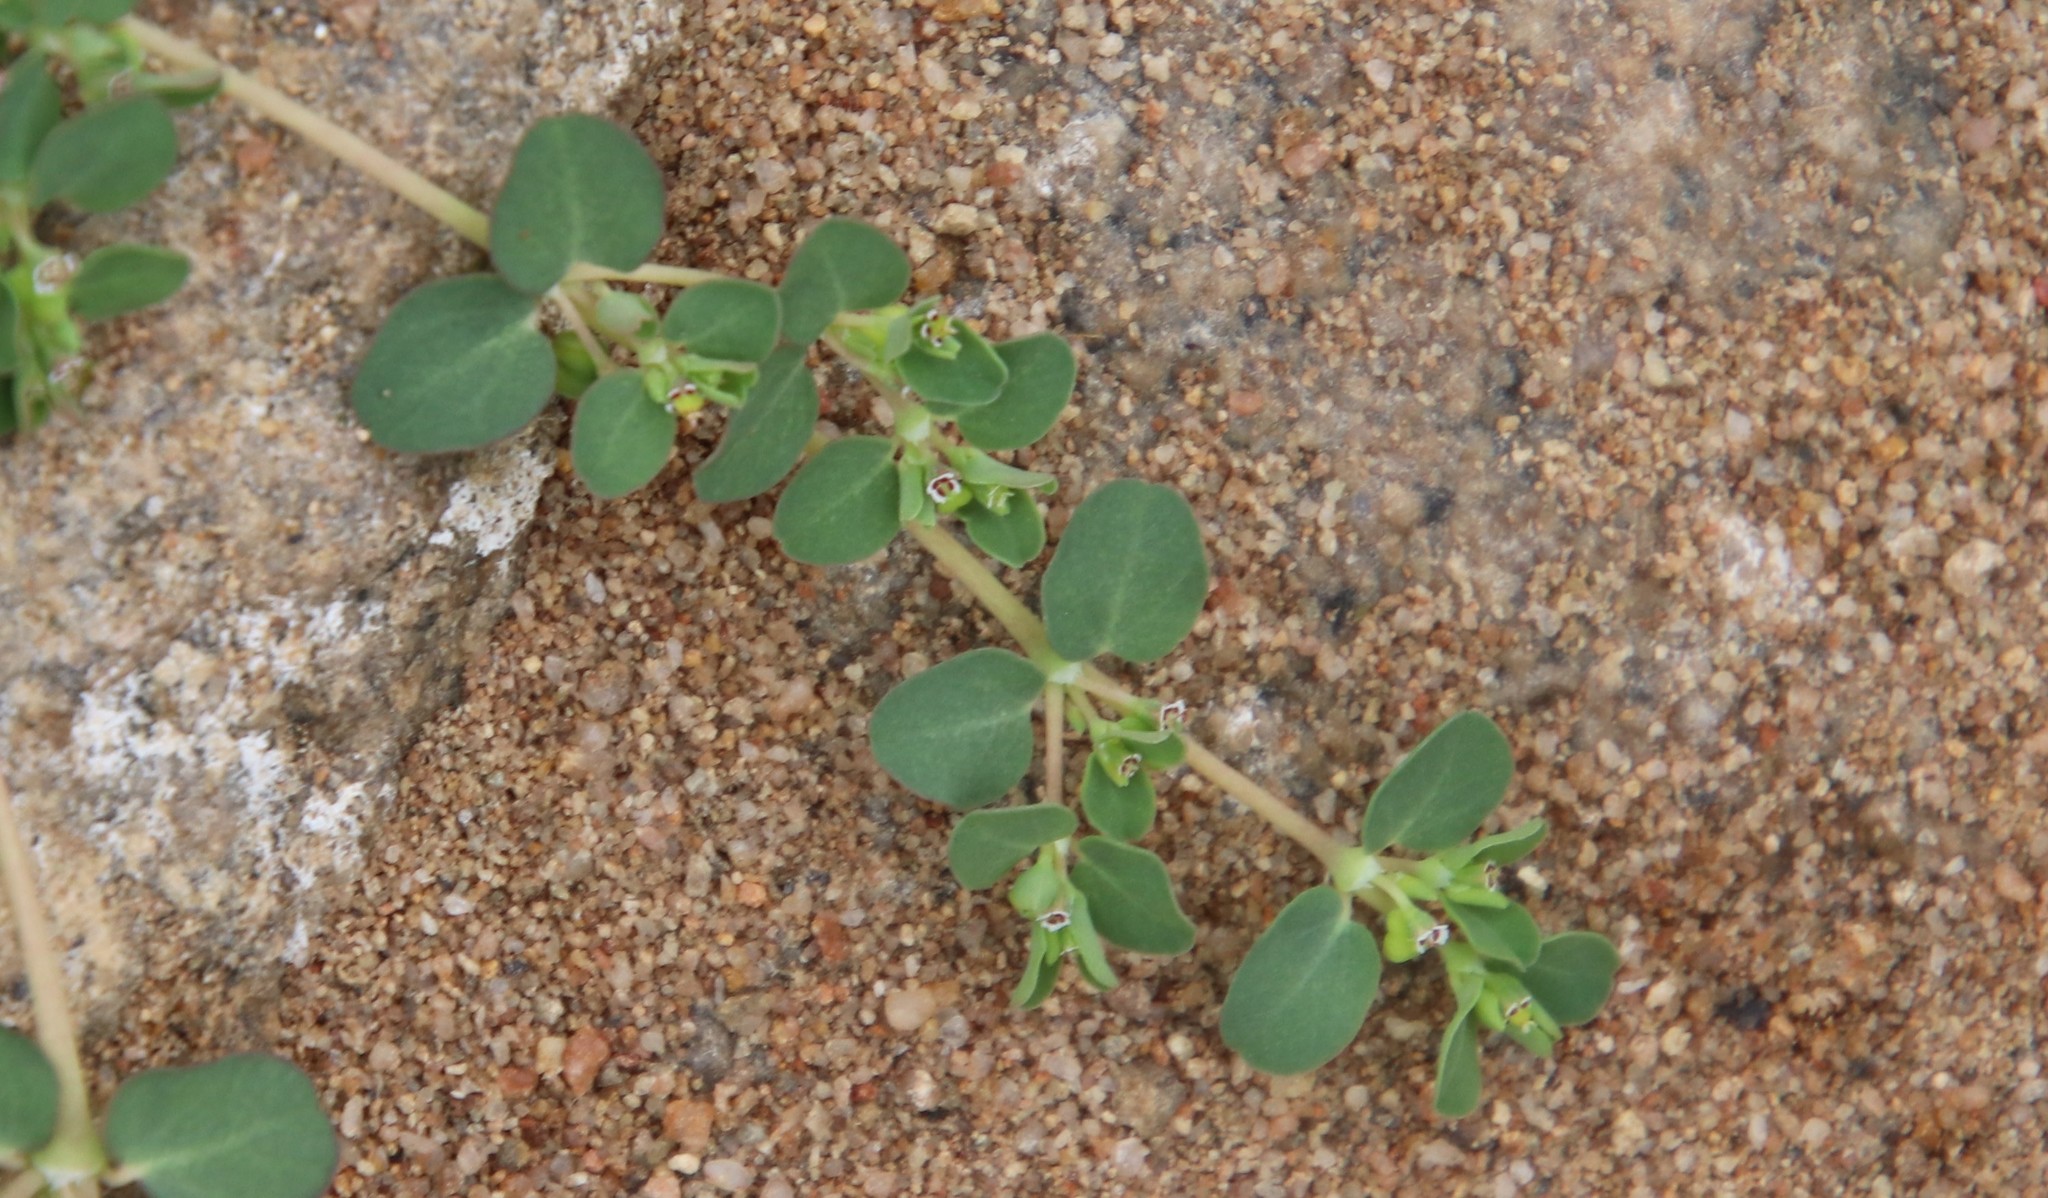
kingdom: Plantae
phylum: Tracheophyta
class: Magnoliopsida
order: Malpighiales
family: Euphorbiaceae
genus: Euphorbia
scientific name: Euphorbia serpens
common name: Matted sandmat
